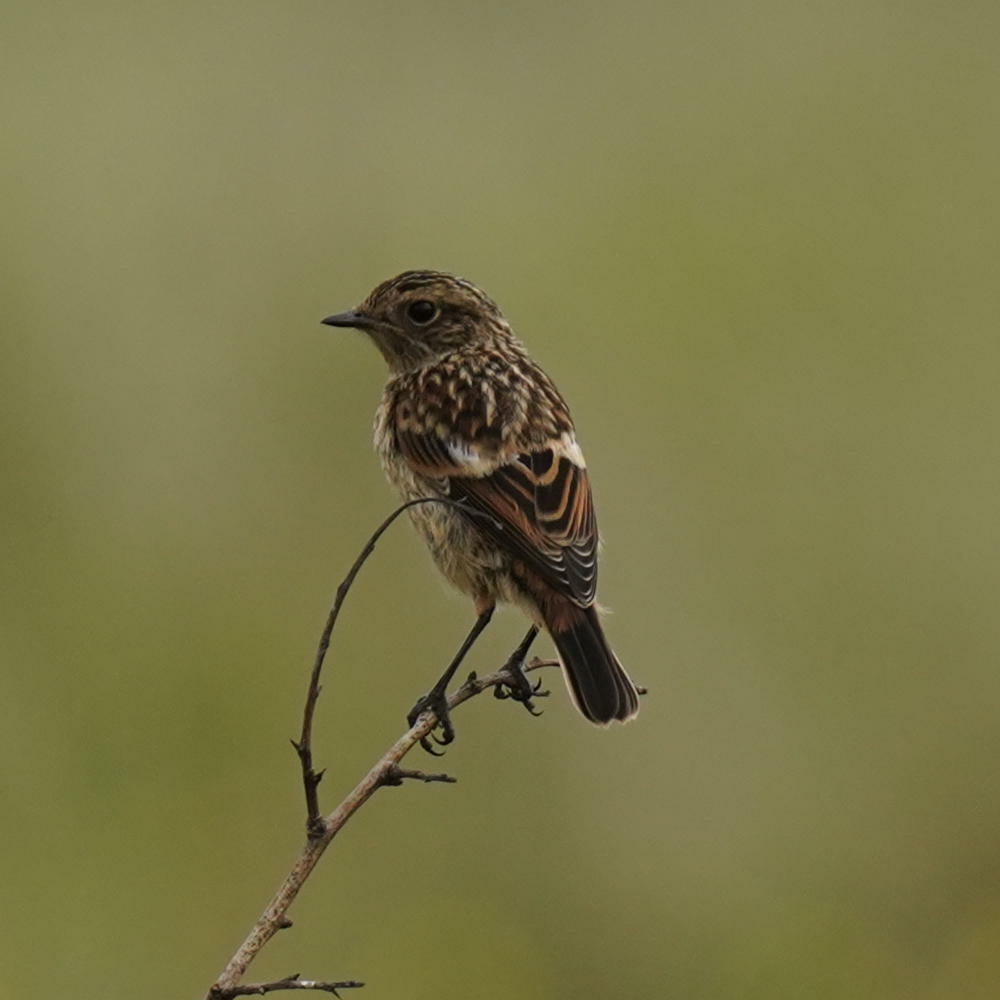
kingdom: Animalia
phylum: Chordata
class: Aves
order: Passeriformes
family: Muscicapidae
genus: Saxicola
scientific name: Saxicola rubicola
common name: European stonechat
